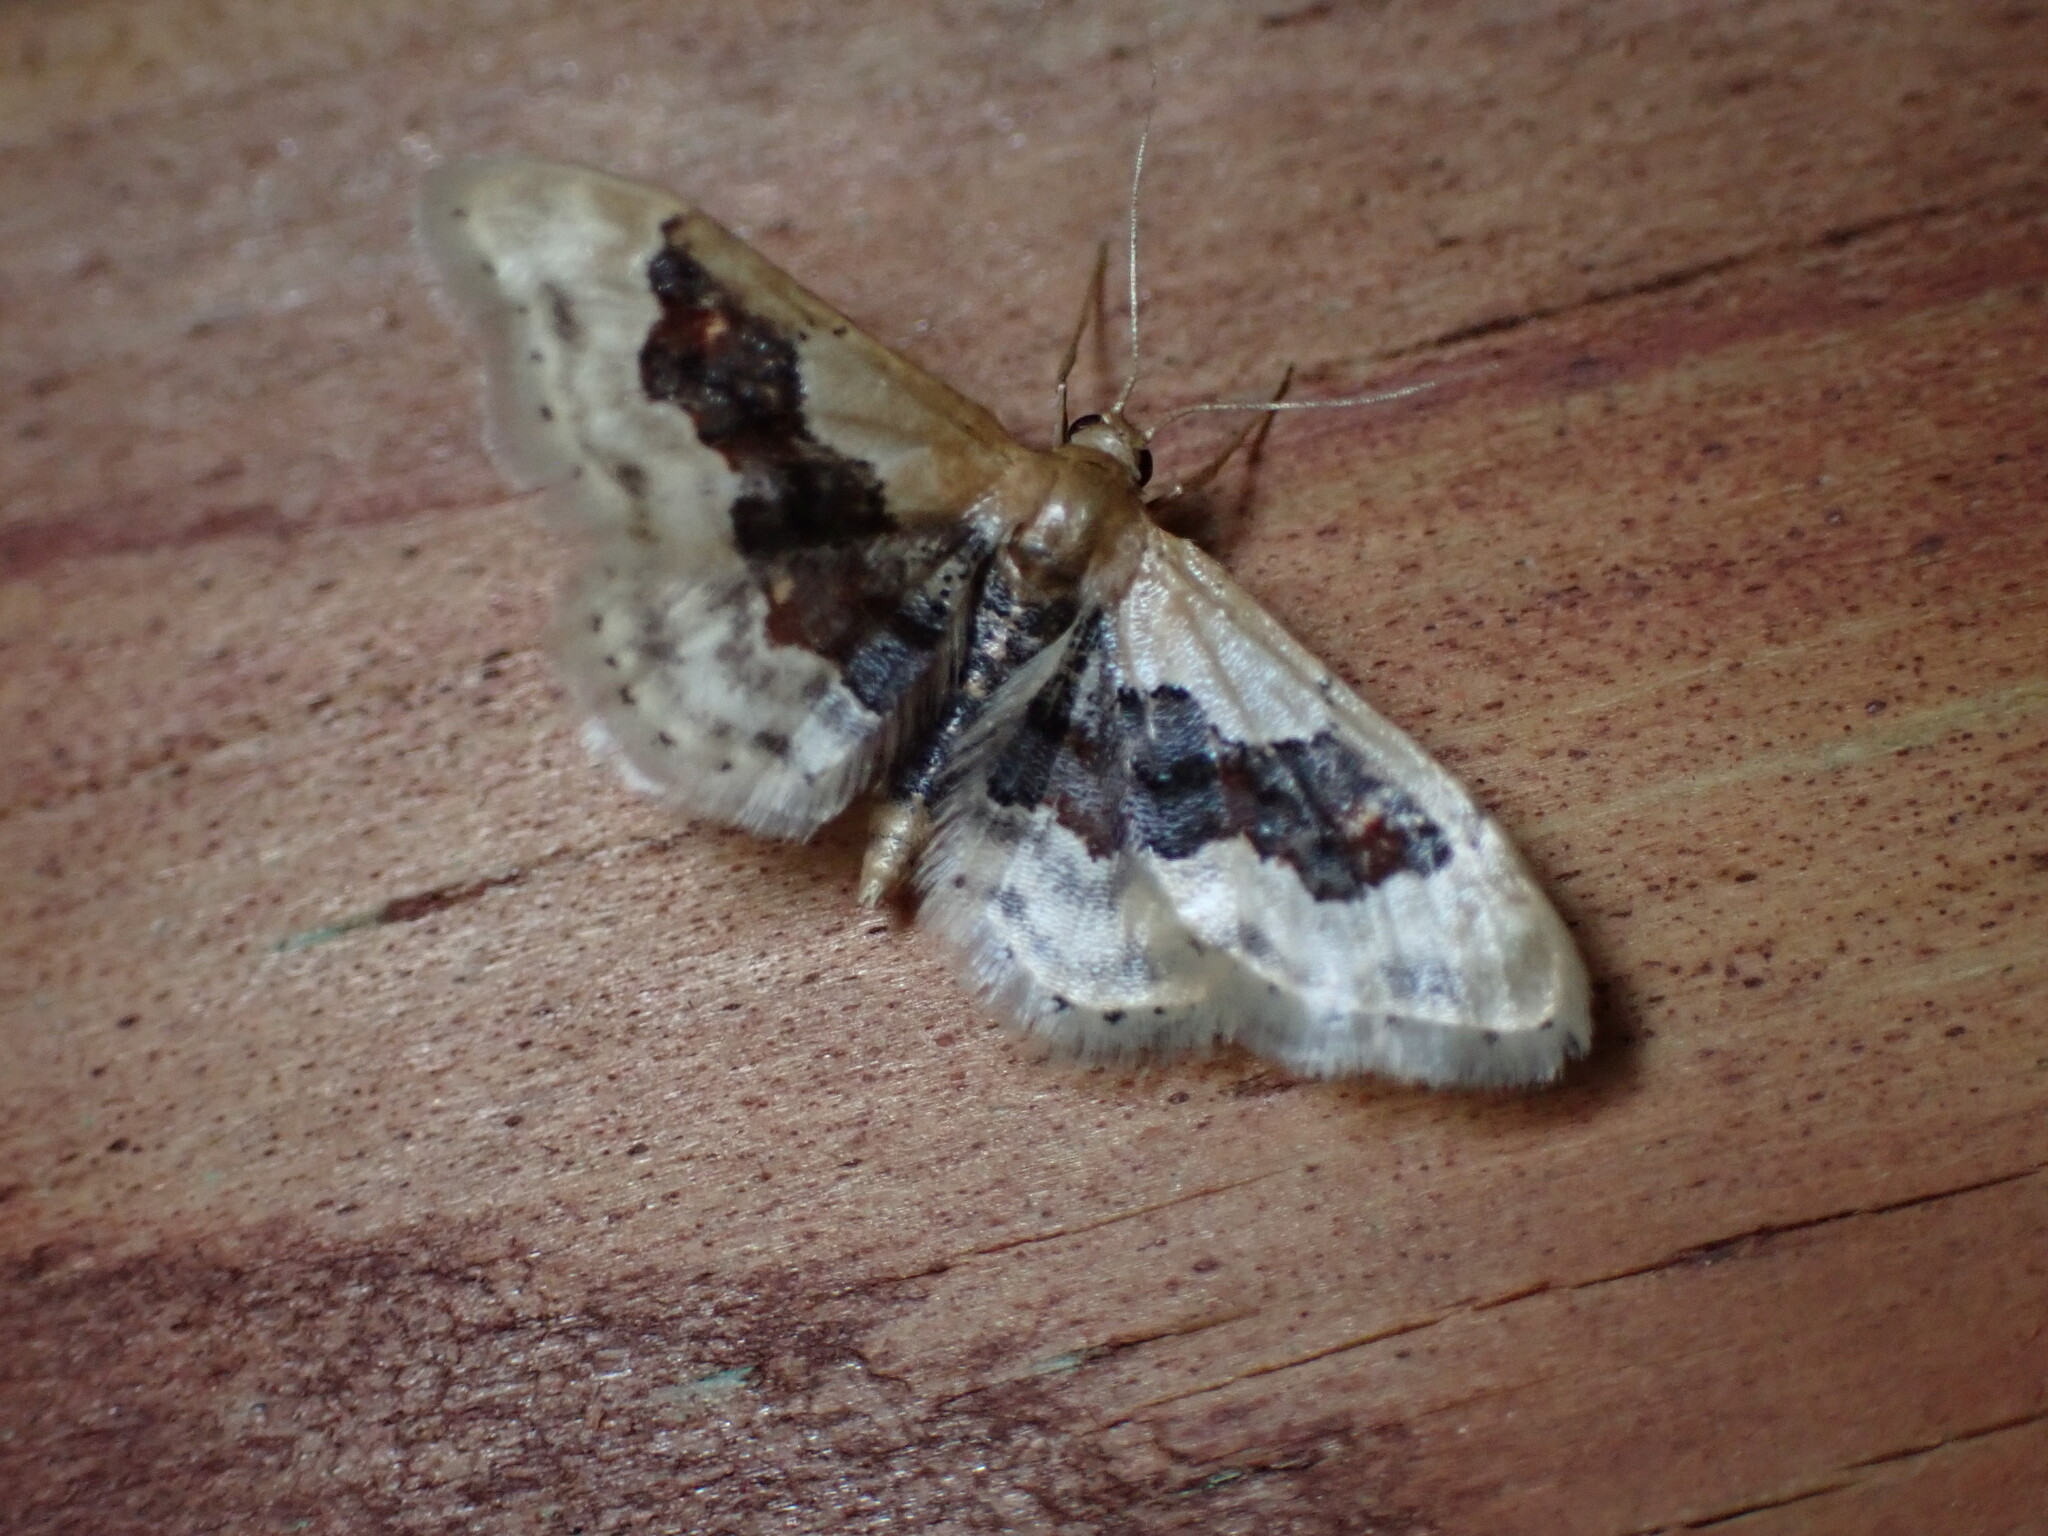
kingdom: Animalia
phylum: Arthropoda
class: Insecta
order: Lepidoptera
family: Geometridae
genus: Idaea
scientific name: Idaea gemmata
